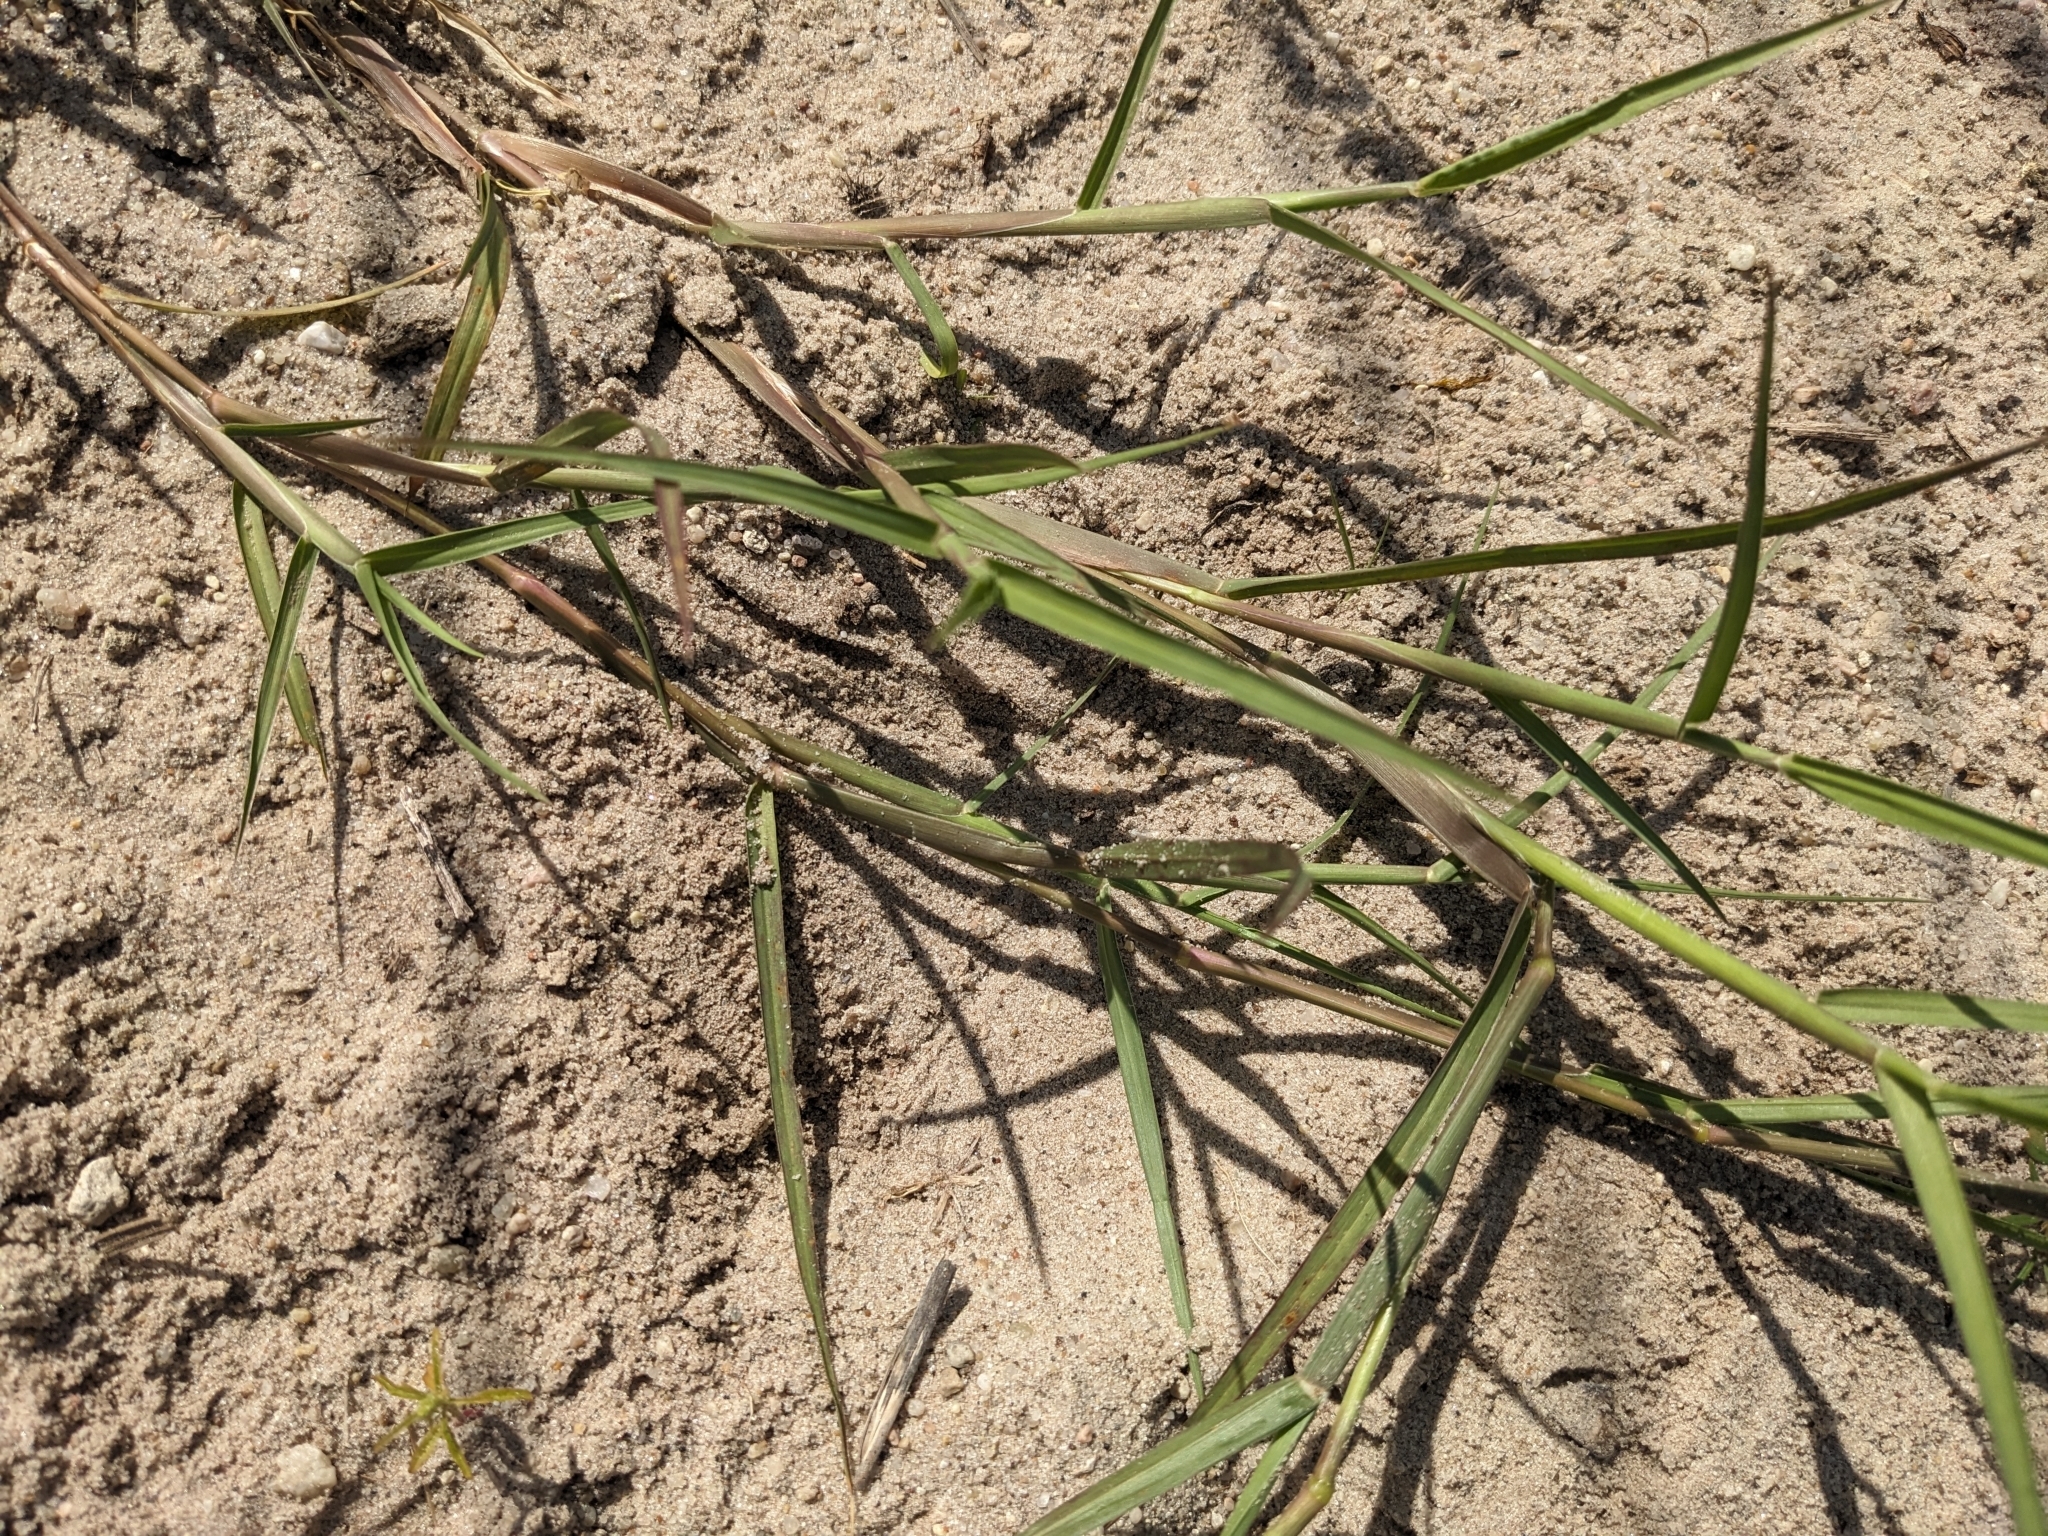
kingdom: Plantae
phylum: Tracheophyta
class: Liliopsida
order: Poales
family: Poaceae
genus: Cenchrus
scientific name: Cenchrus longispinus
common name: Mat sandbur
